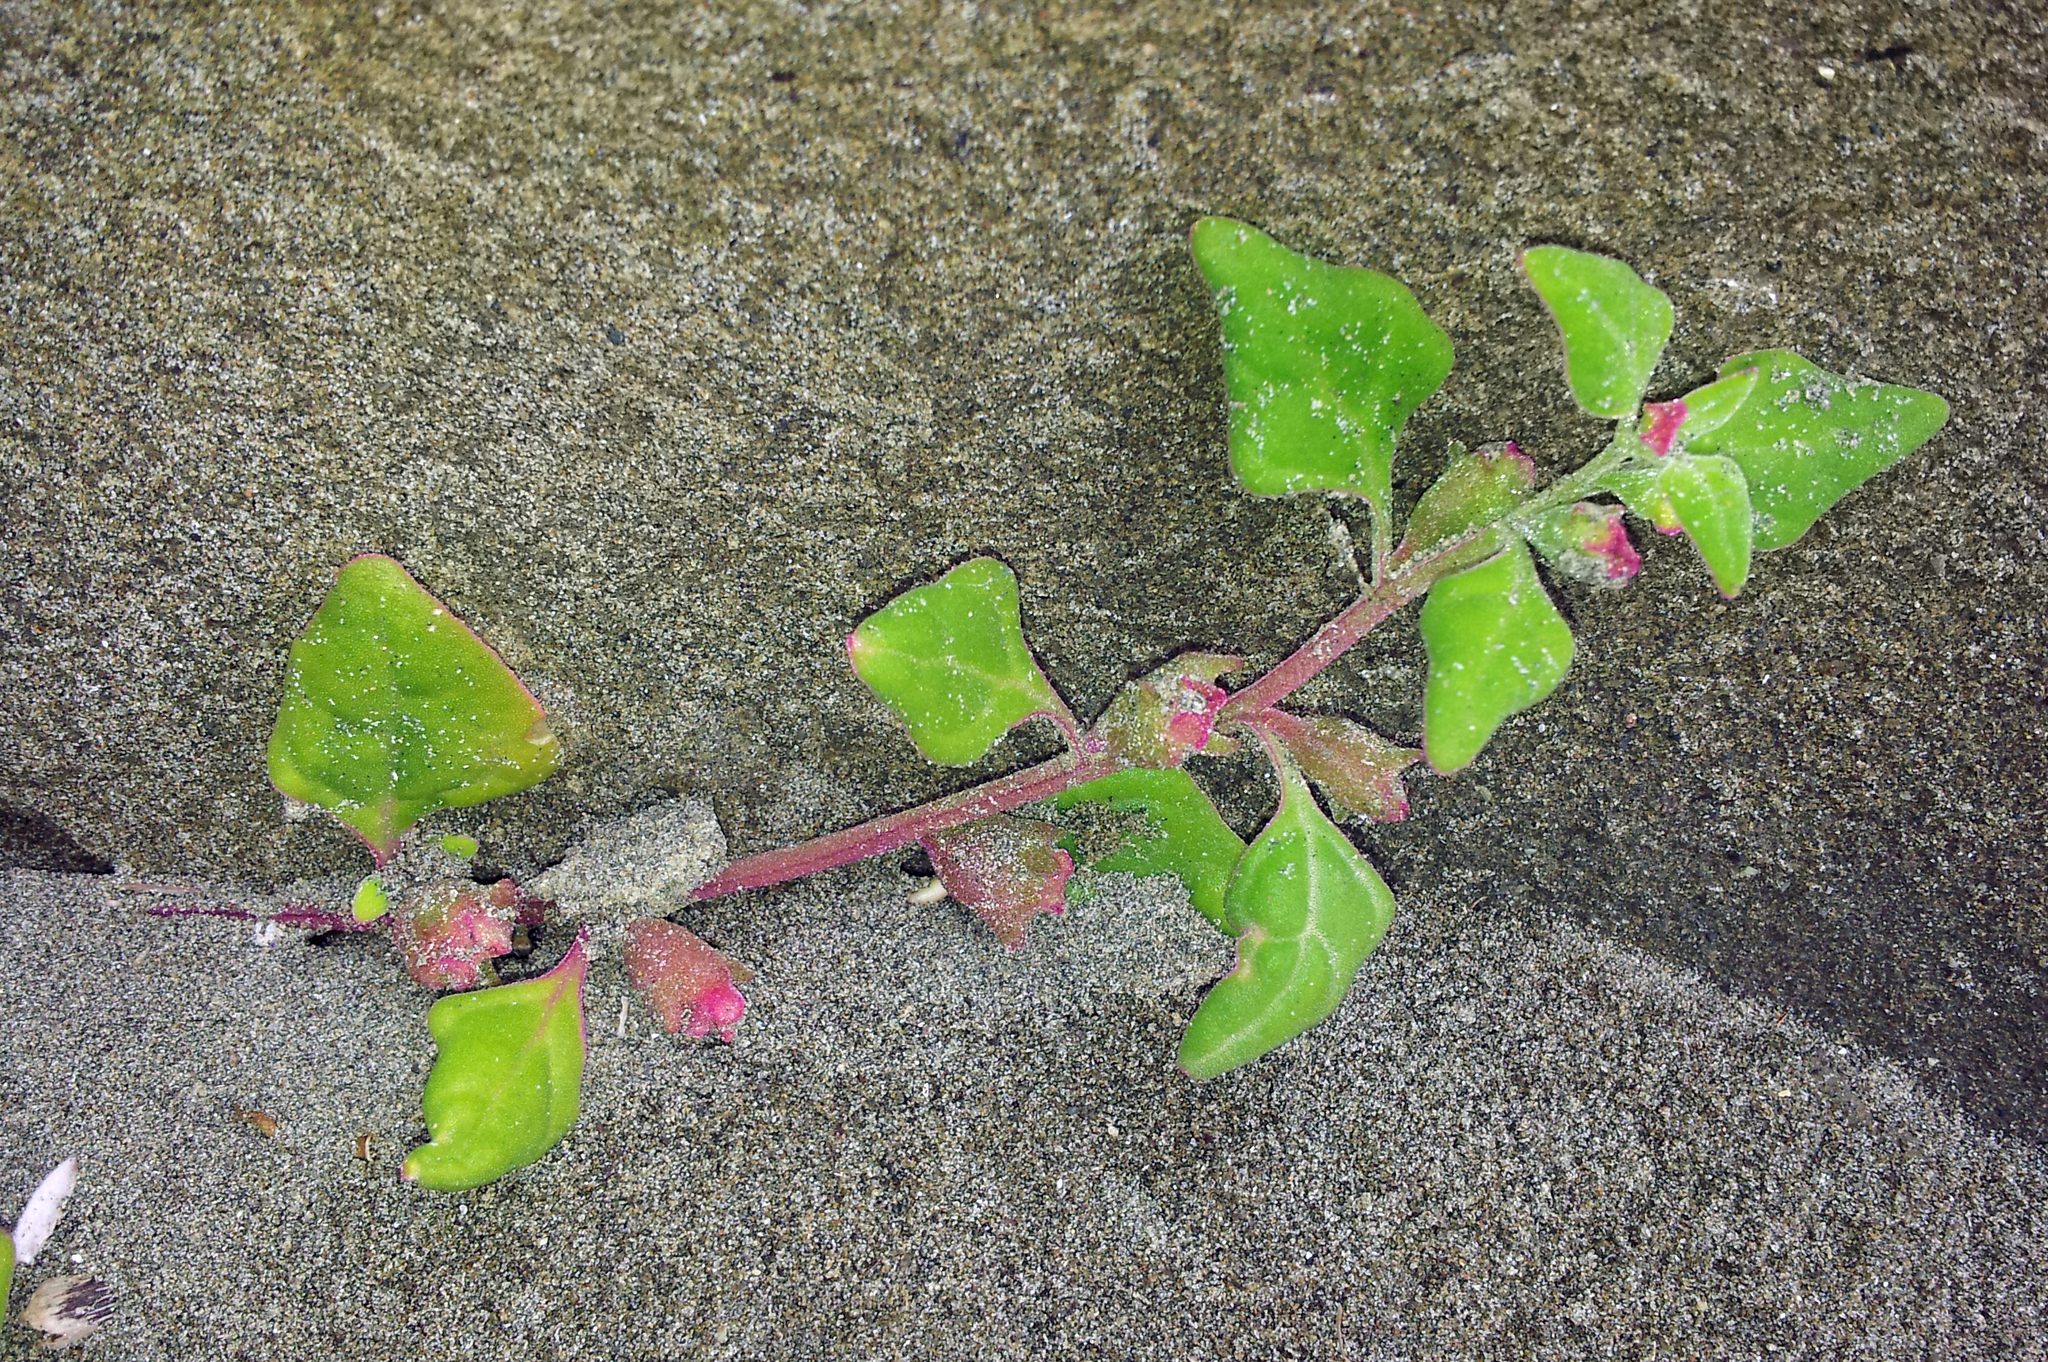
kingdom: Plantae
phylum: Tracheophyta
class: Magnoliopsida
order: Caryophyllales
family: Aizoaceae
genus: Tetragonia
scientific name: Tetragonia tetragonoides
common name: New zealand-spinach
